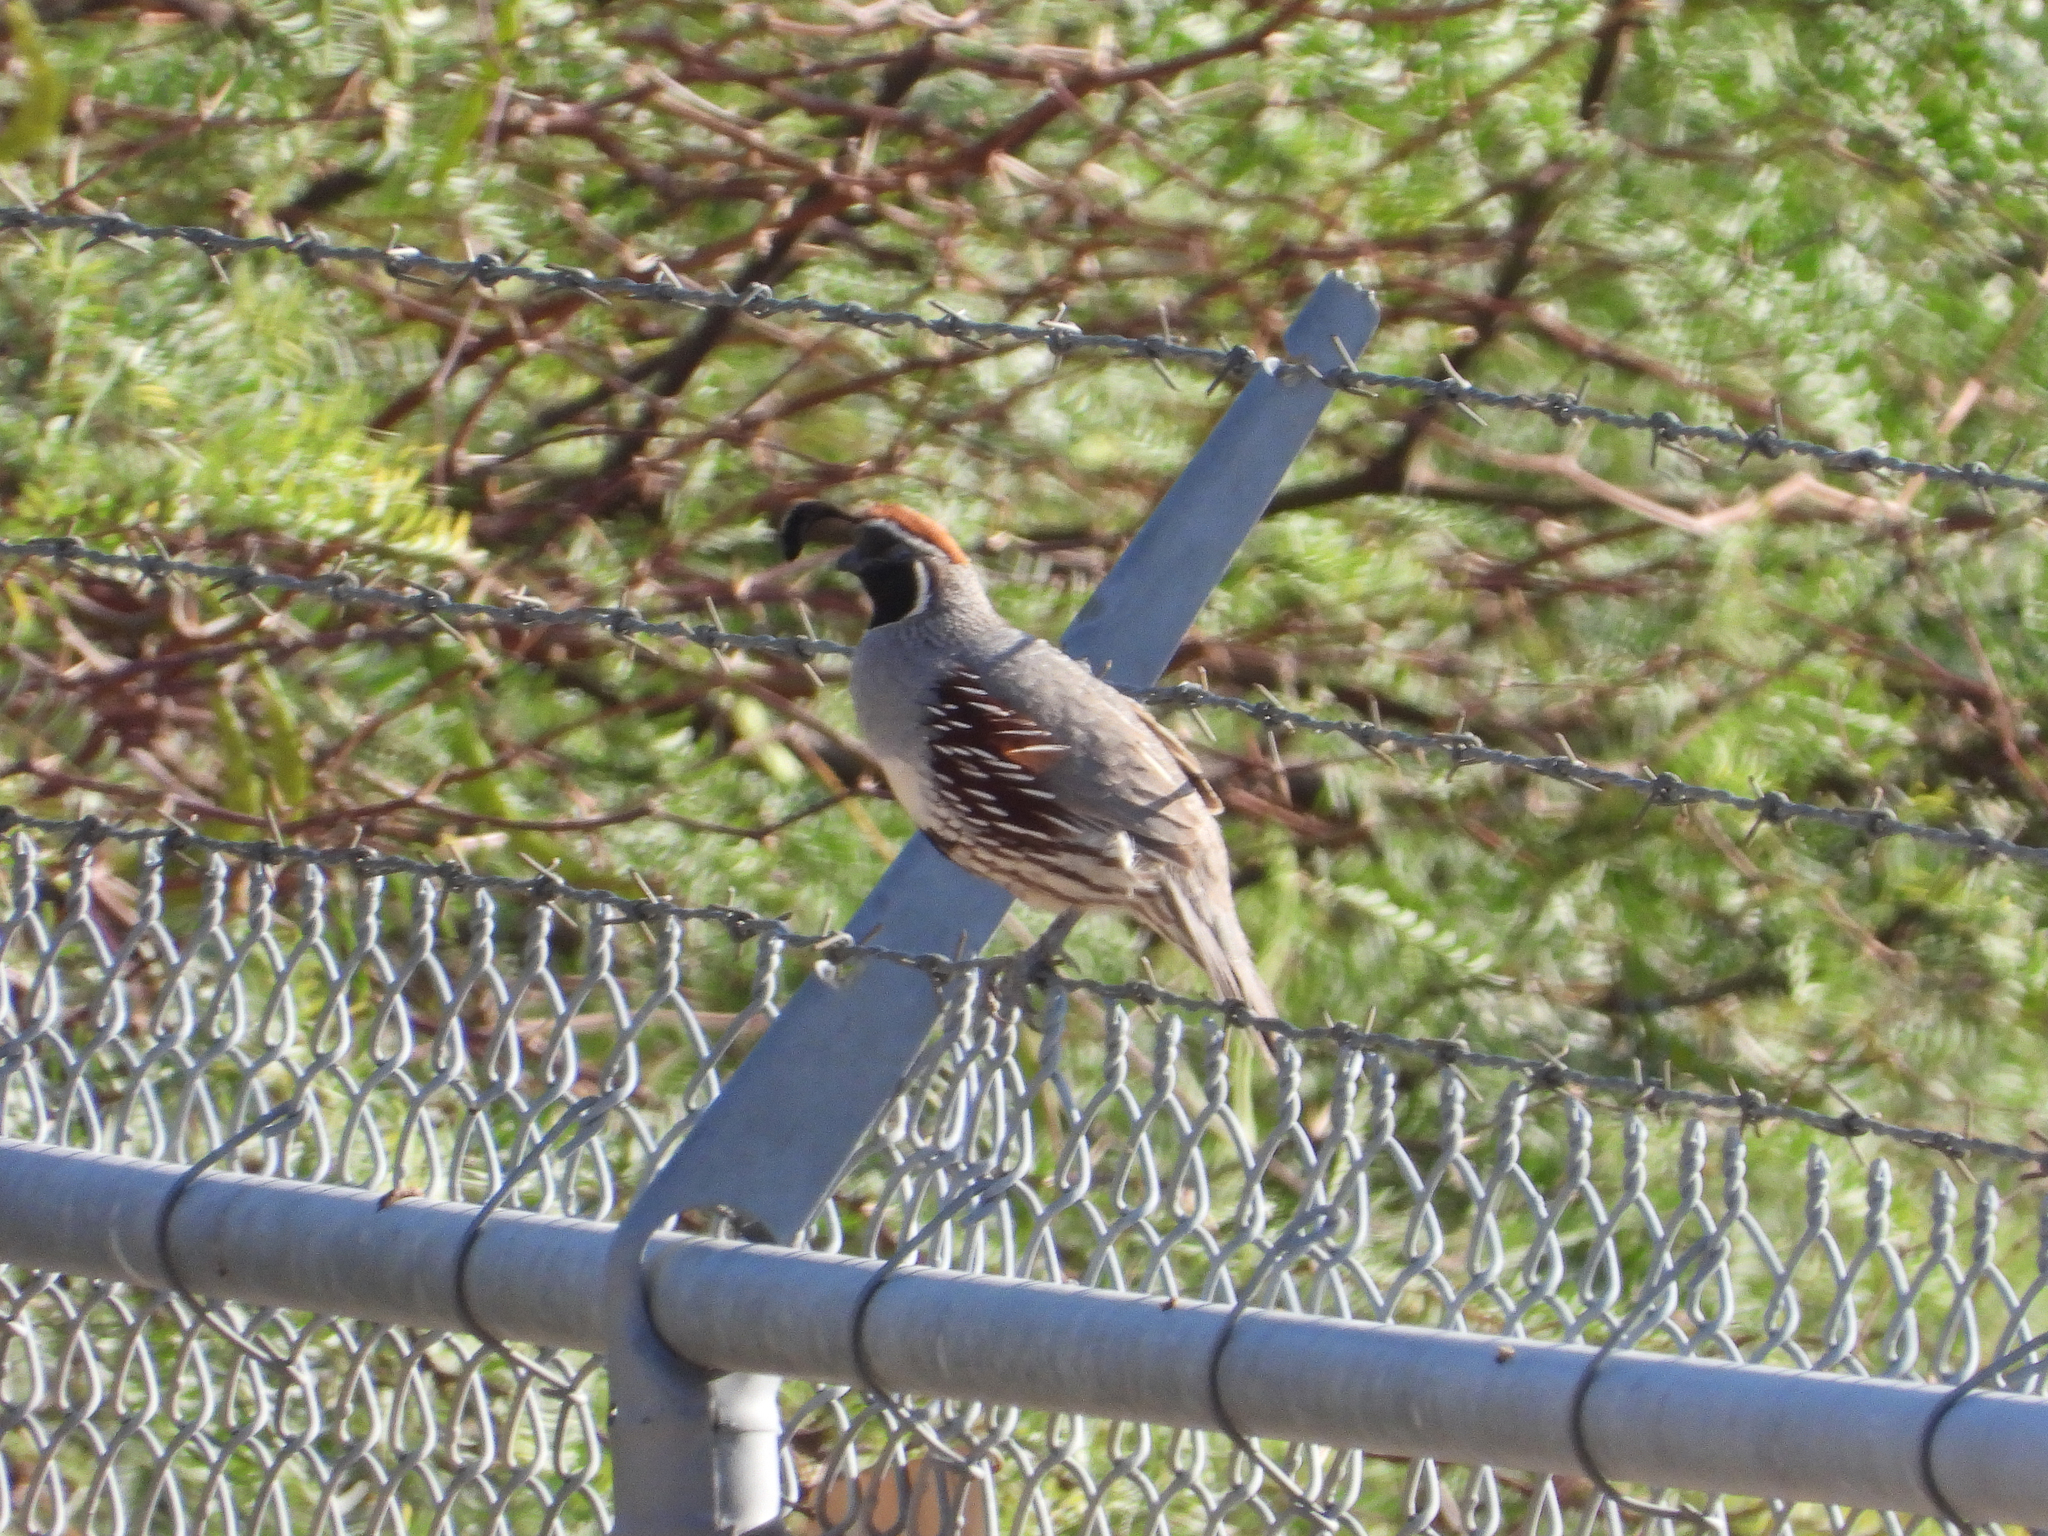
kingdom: Animalia
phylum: Chordata
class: Aves
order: Galliformes
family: Odontophoridae
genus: Callipepla
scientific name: Callipepla gambelii
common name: Gambel's quail
